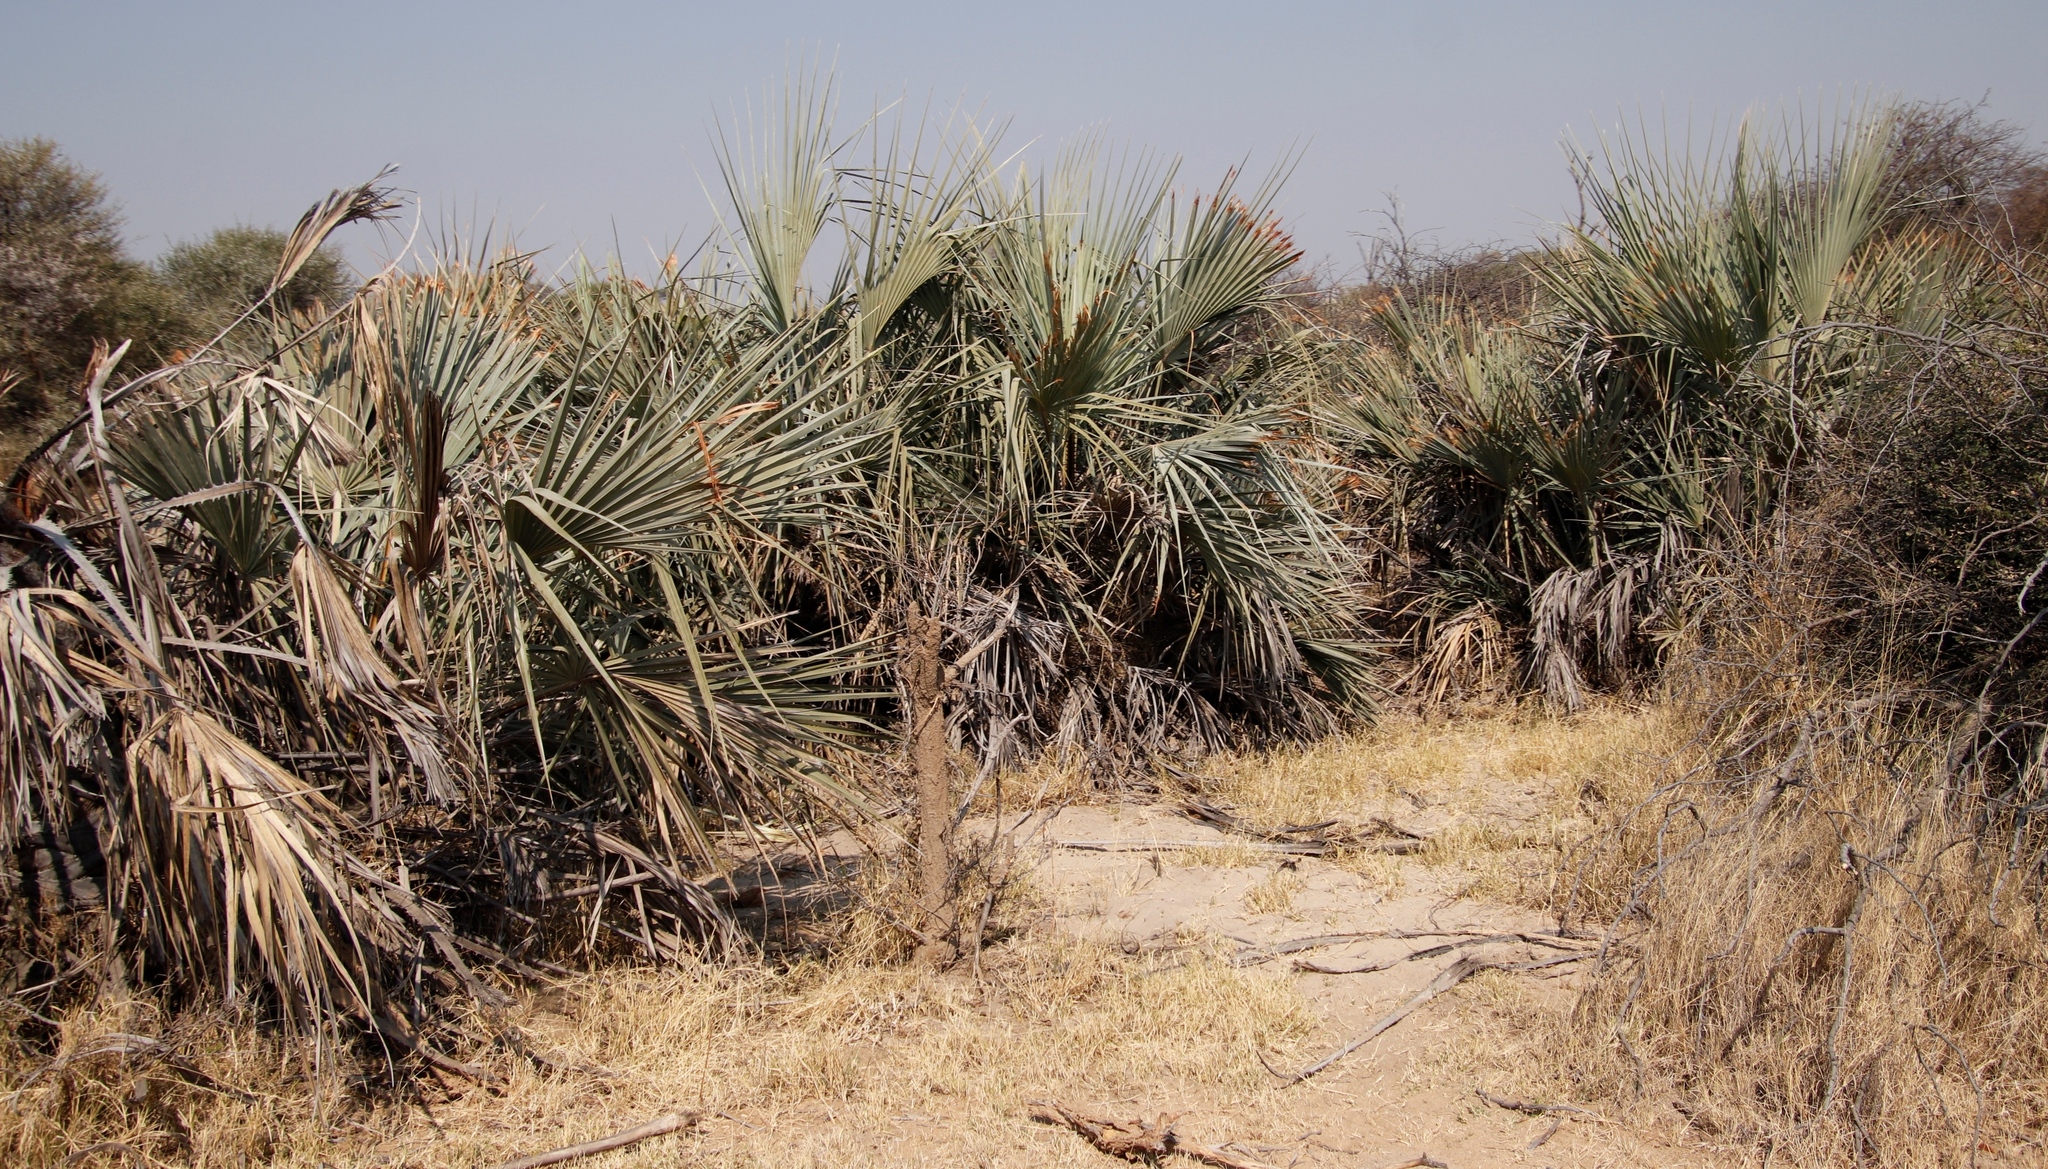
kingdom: Plantae
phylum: Tracheophyta
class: Liliopsida
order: Arecales
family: Arecaceae
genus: Hyphaene
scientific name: Hyphaene petersiana
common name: African ivory nut palm
